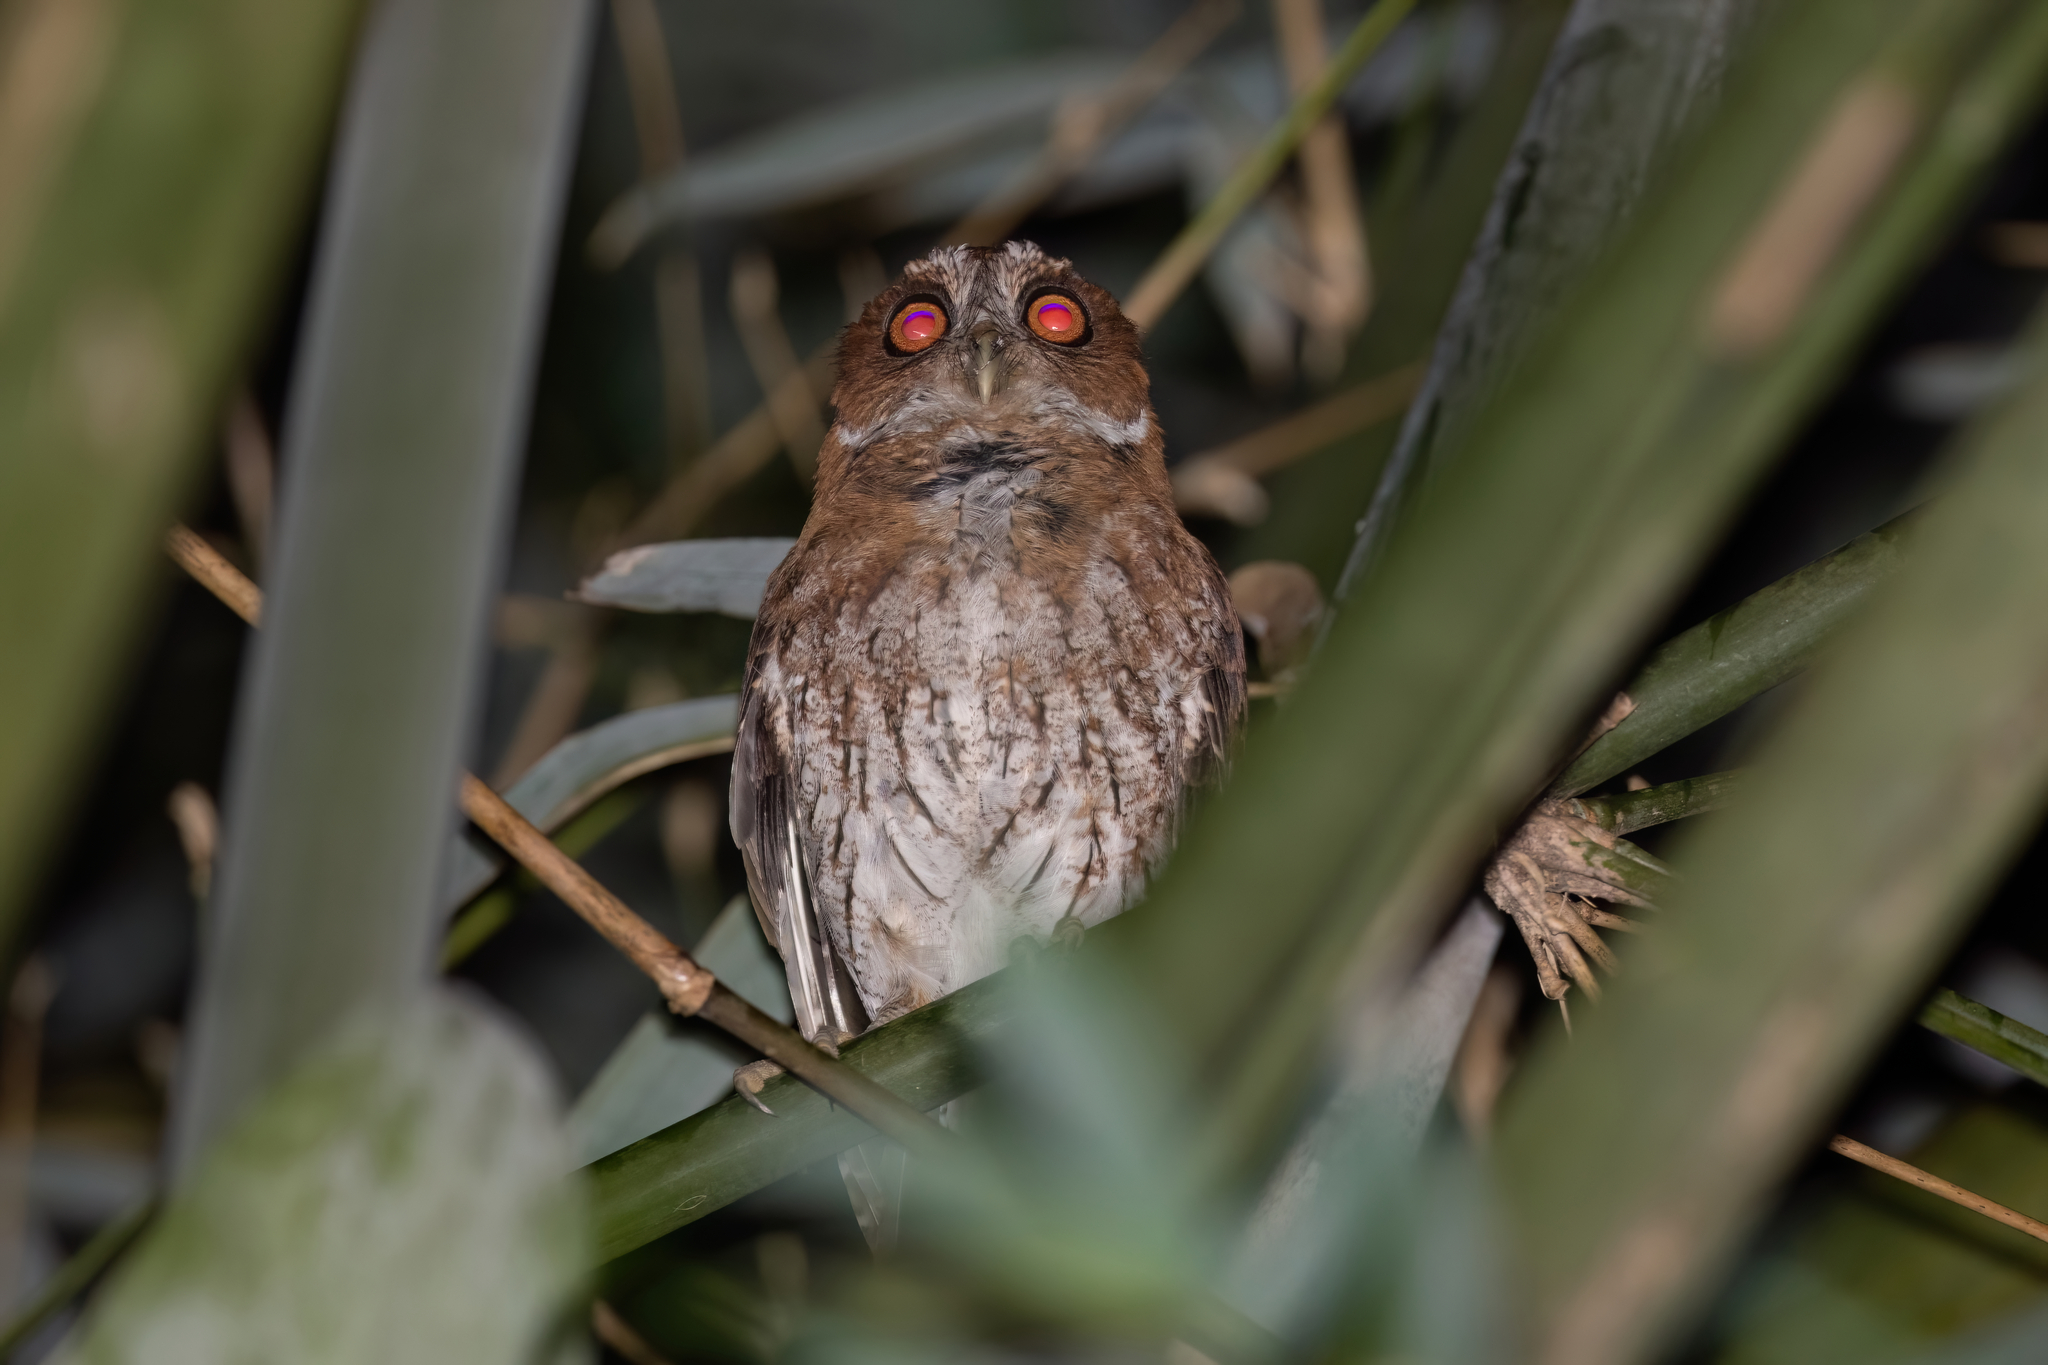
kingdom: Animalia
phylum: Chordata
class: Aves
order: Strigiformes
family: Strigidae
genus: Megascops
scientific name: Megascops nudipes
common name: Puerto rican screech-owl
